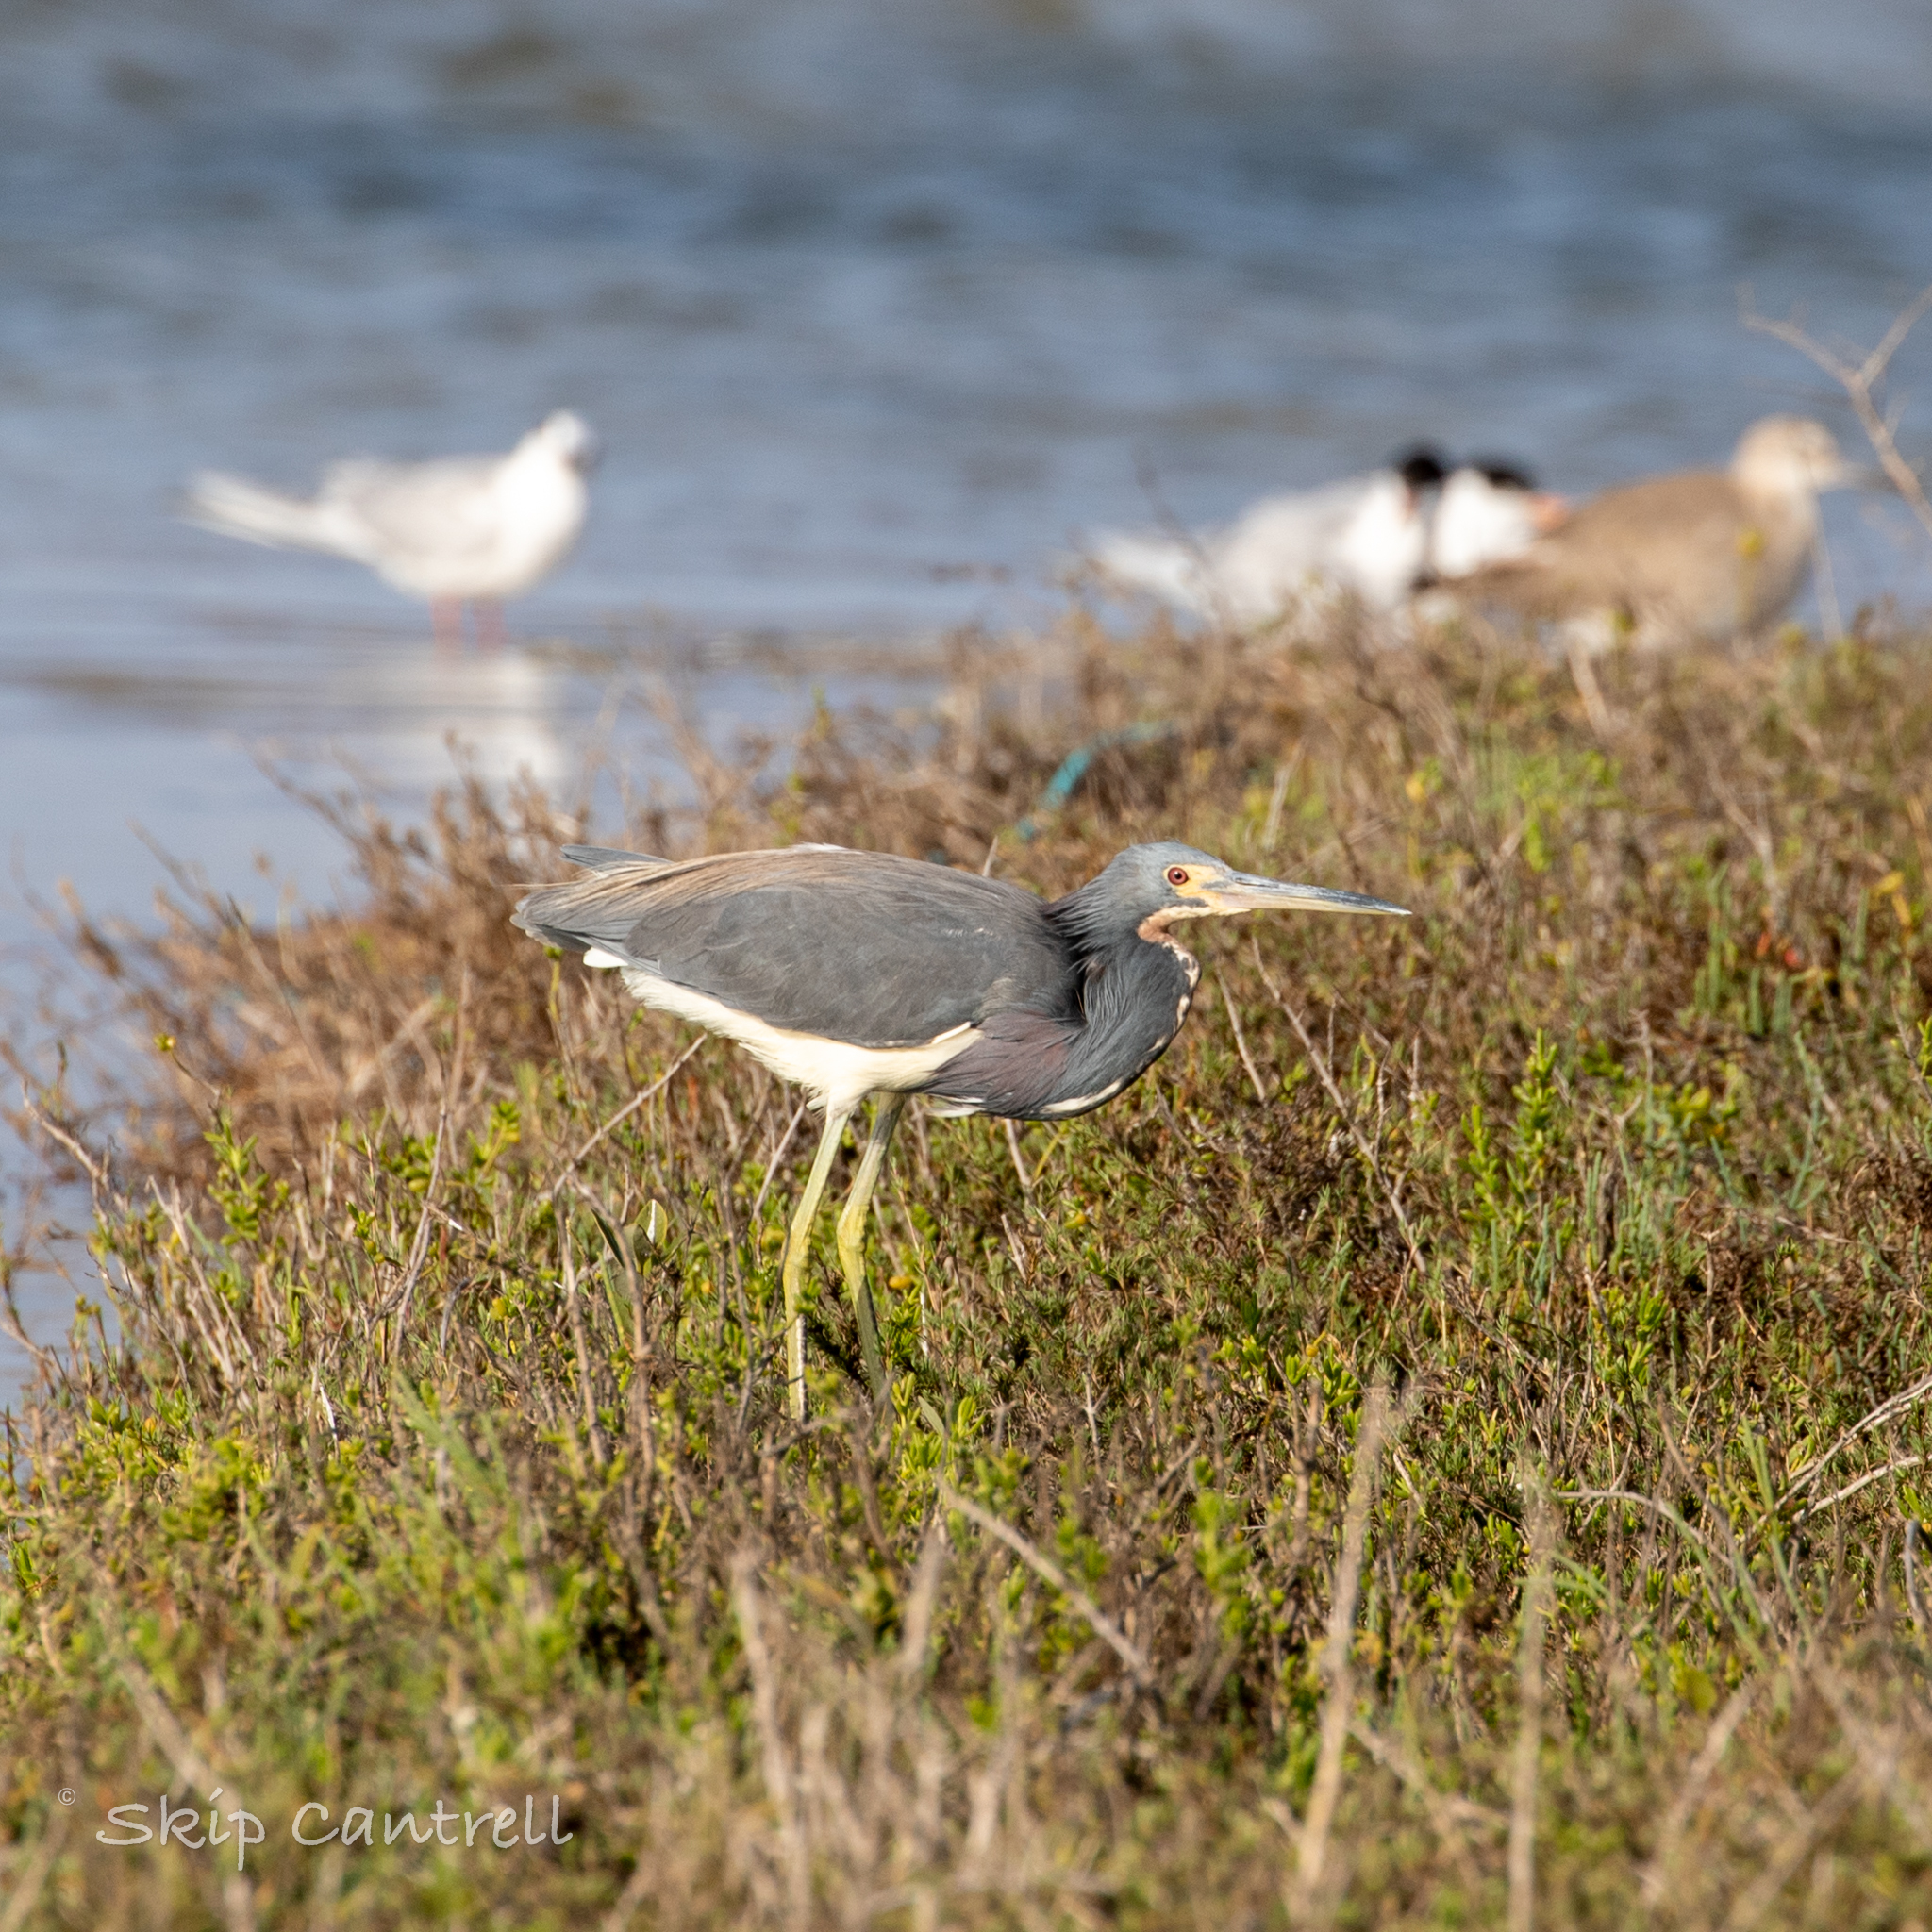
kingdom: Animalia
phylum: Chordata
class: Aves
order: Pelecaniformes
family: Ardeidae
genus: Egretta
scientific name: Egretta tricolor
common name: Tricolored heron
